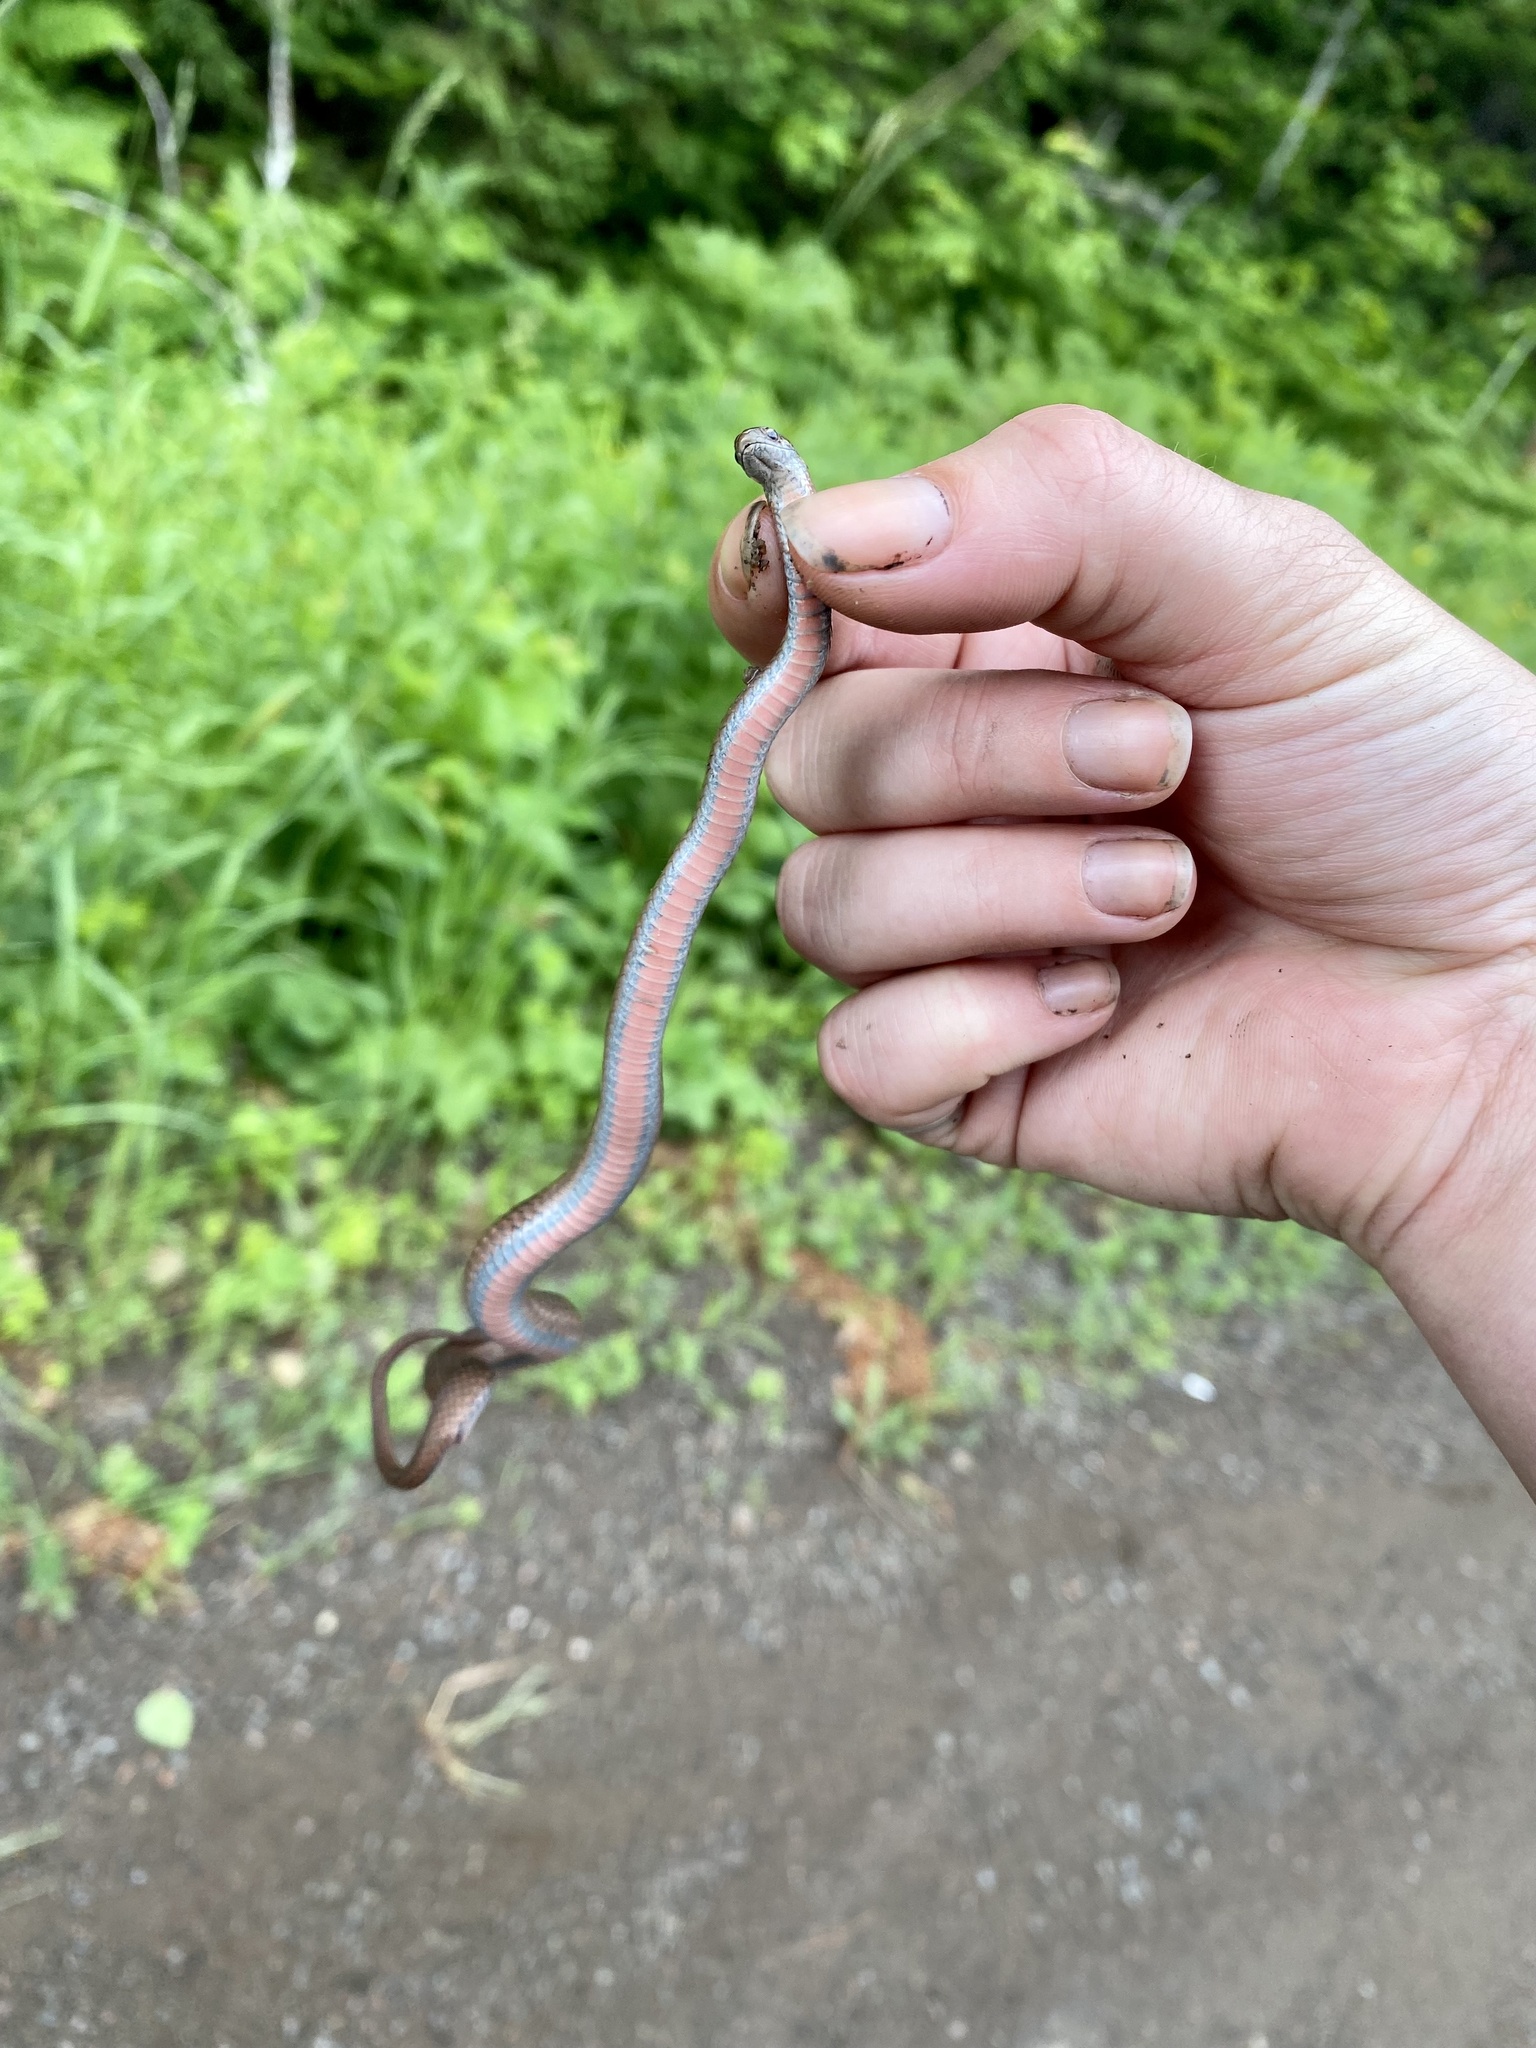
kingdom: Animalia
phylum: Chordata
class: Squamata
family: Colubridae
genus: Storeria
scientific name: Storeria occipitomaculata
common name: Redbelly snake
